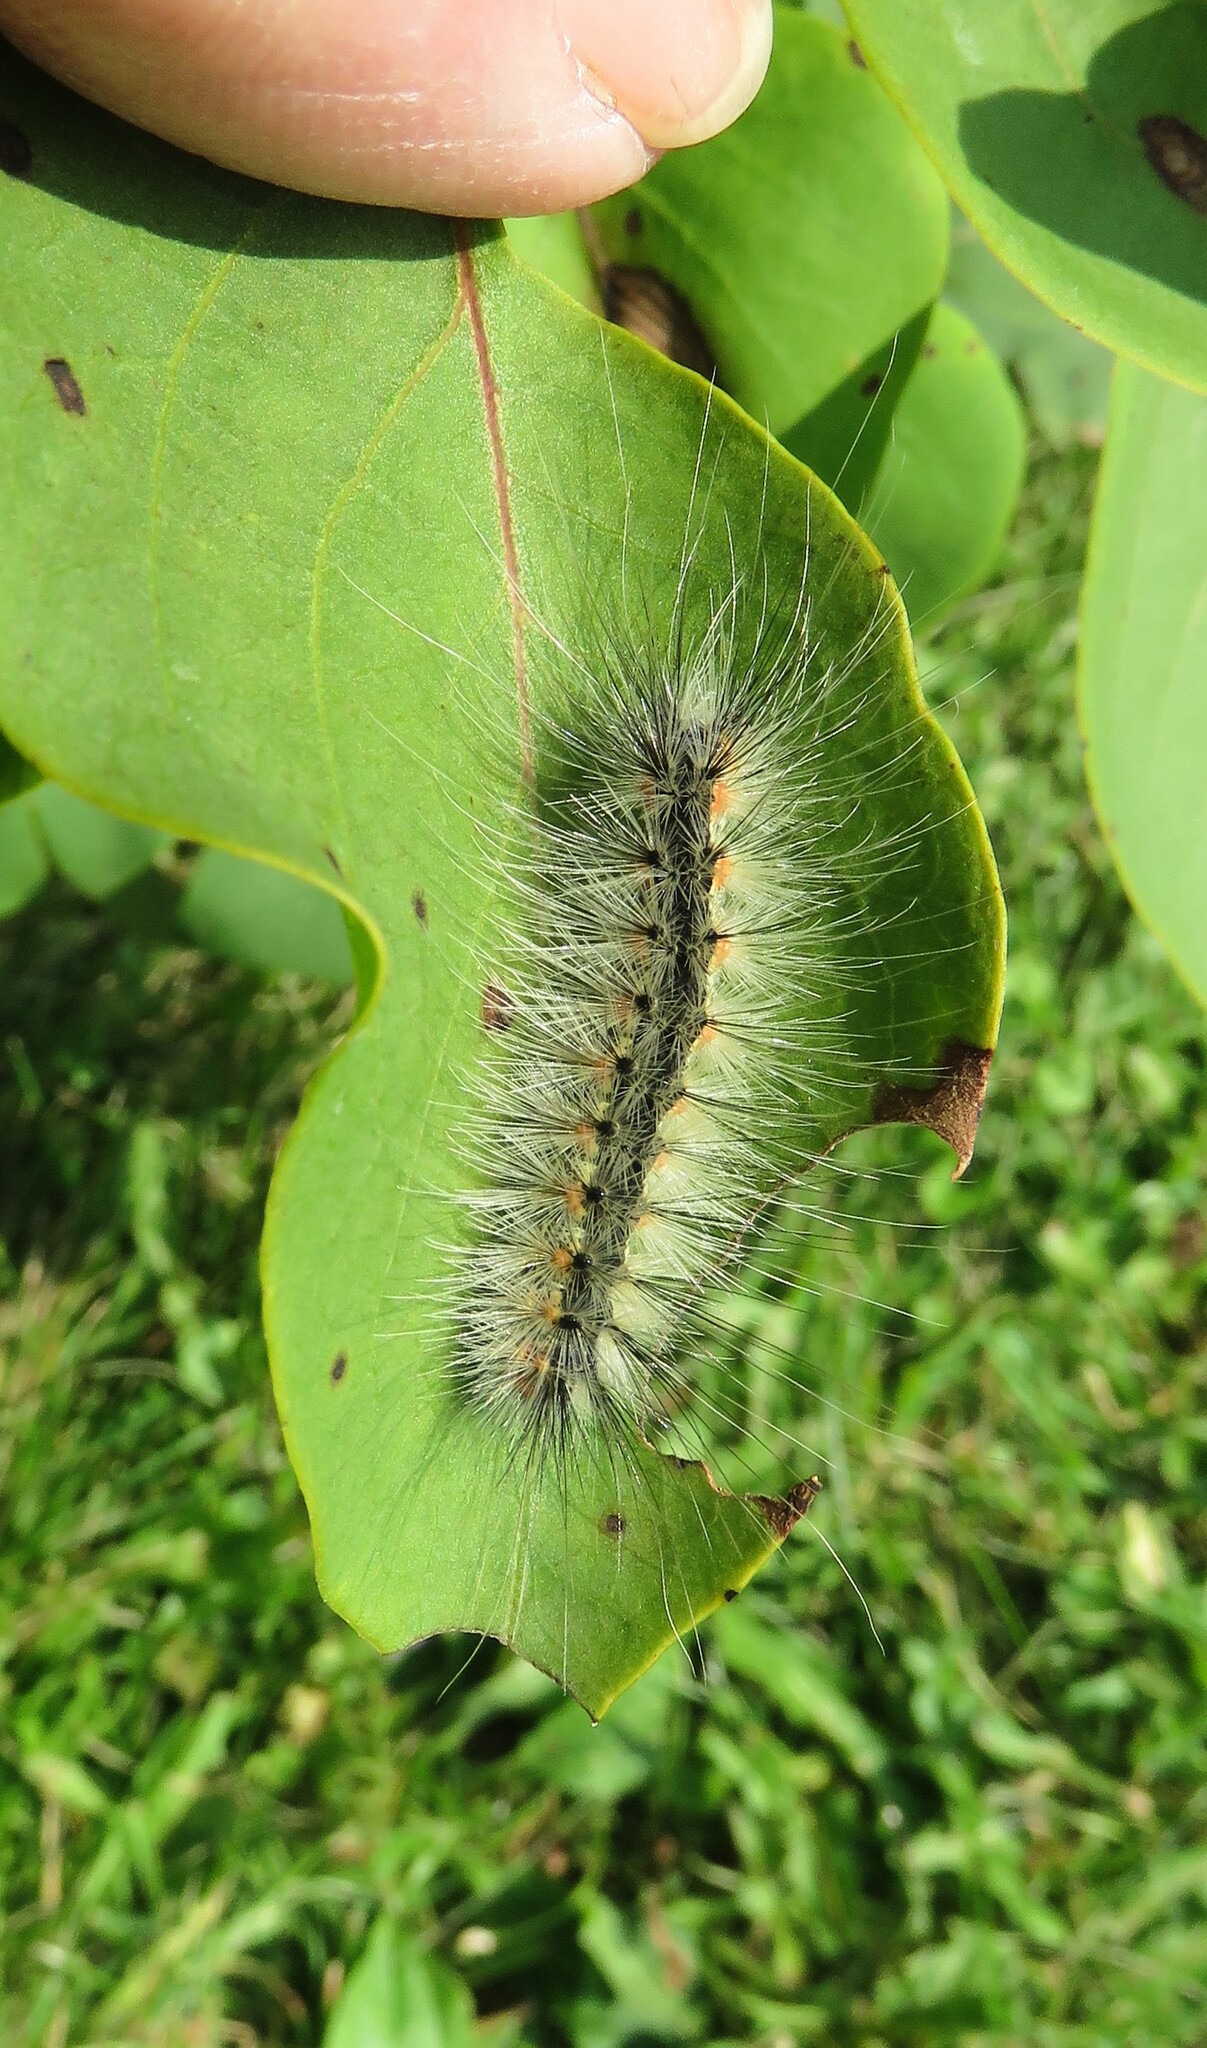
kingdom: Animalia
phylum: Arthropoda
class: Insecta
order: Lepidoptera
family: Erebidae
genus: Hyphantria
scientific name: Hyphantria cunea
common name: American white moth
